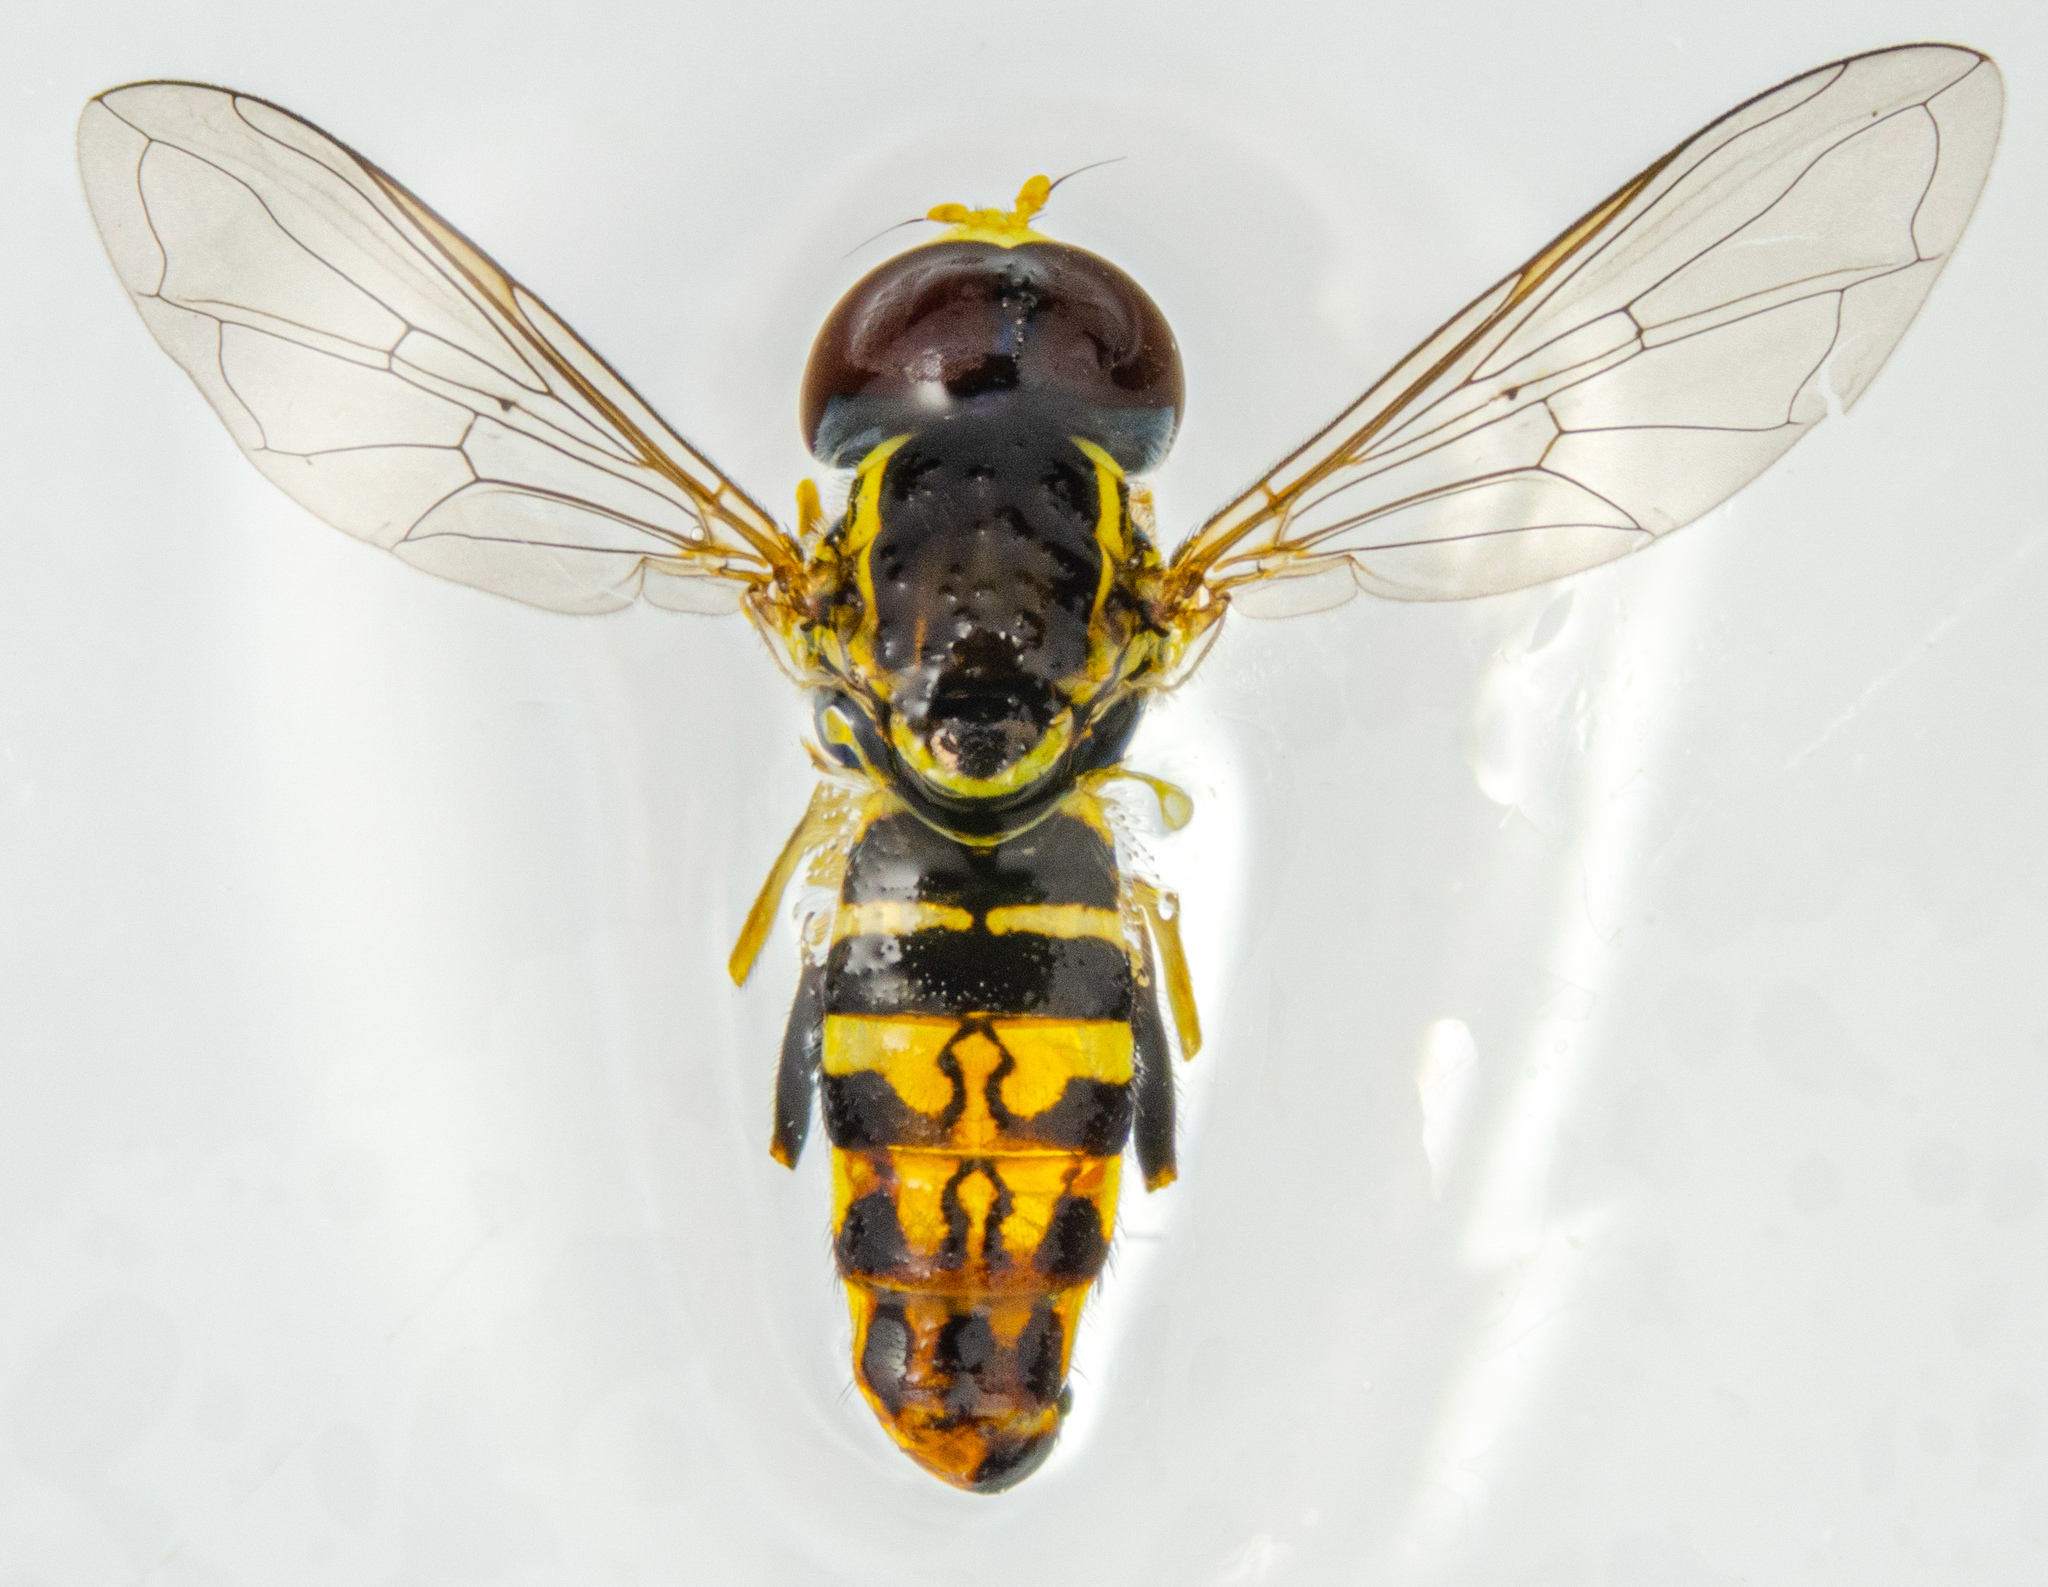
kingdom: Animalia
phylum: Arthropoda
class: Insecta
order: Diptera
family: Syrphidae
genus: Toxomerus
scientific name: Toxomerus occidentalis
